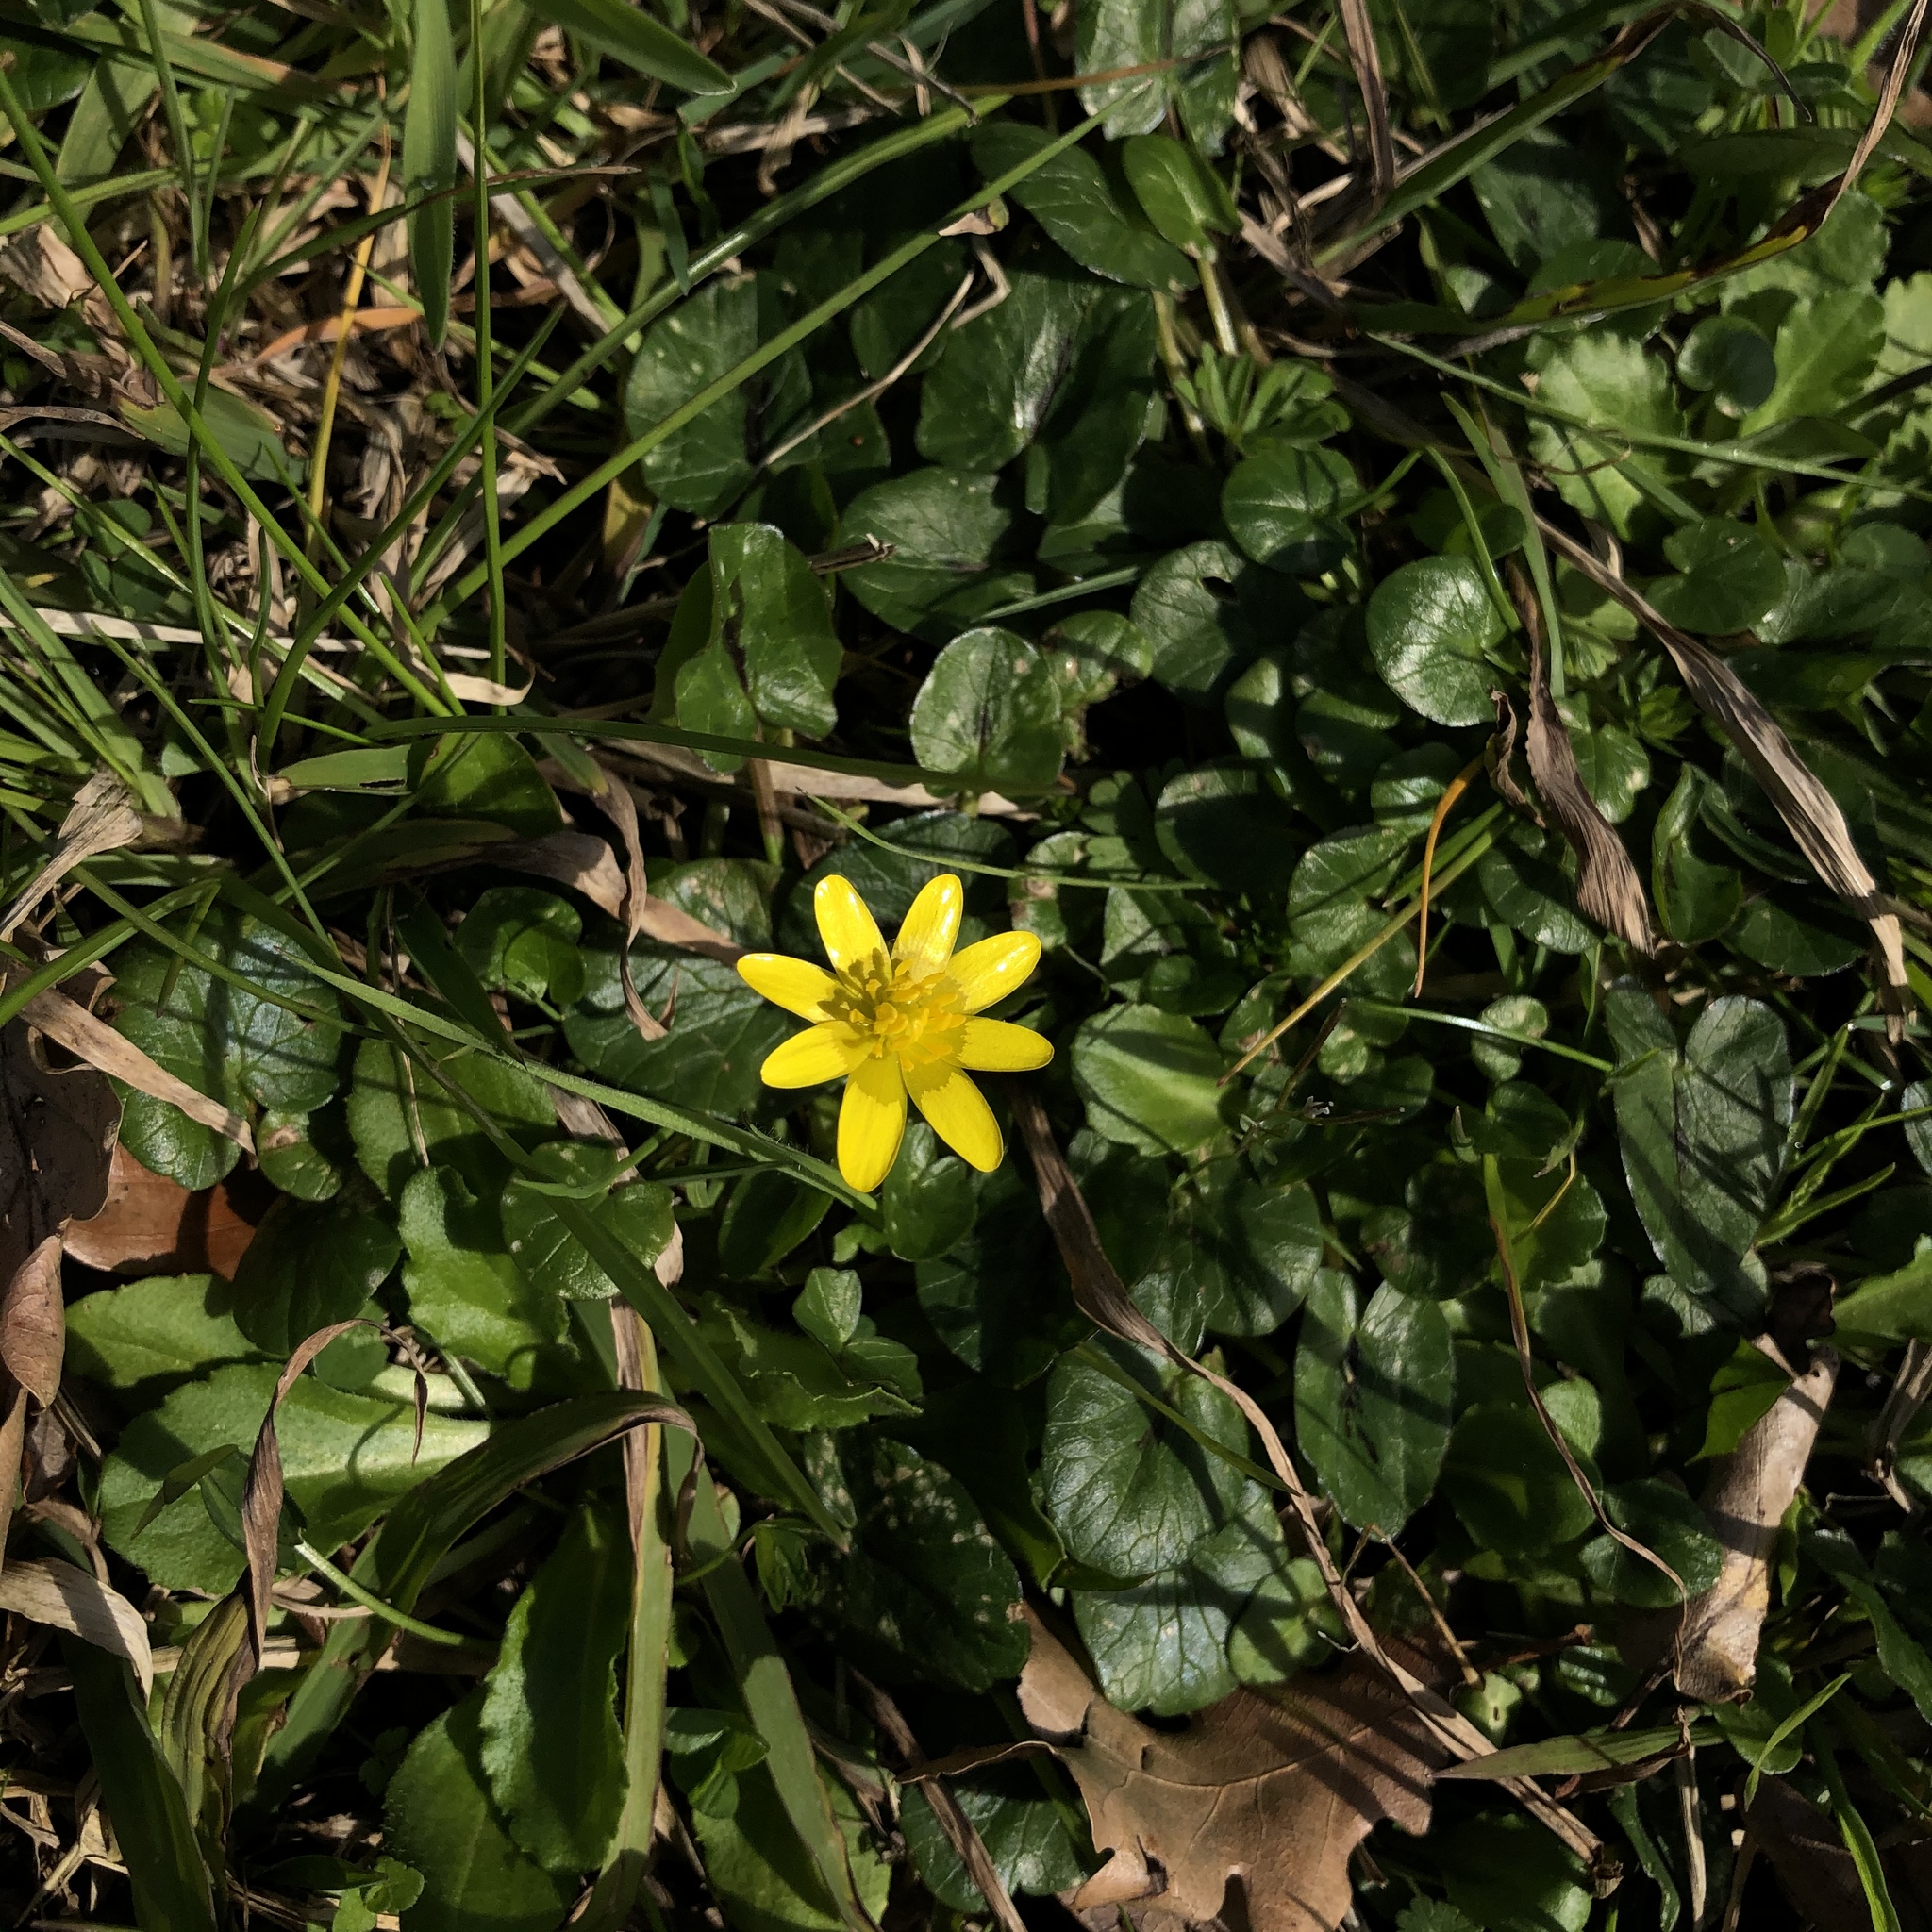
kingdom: Plantae
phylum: Tracheophyta
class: Magnoliopsida
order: Ranunculales
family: Ranunculaceae
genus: Ficaria
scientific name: Ficaria verna
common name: Lesser celandine
